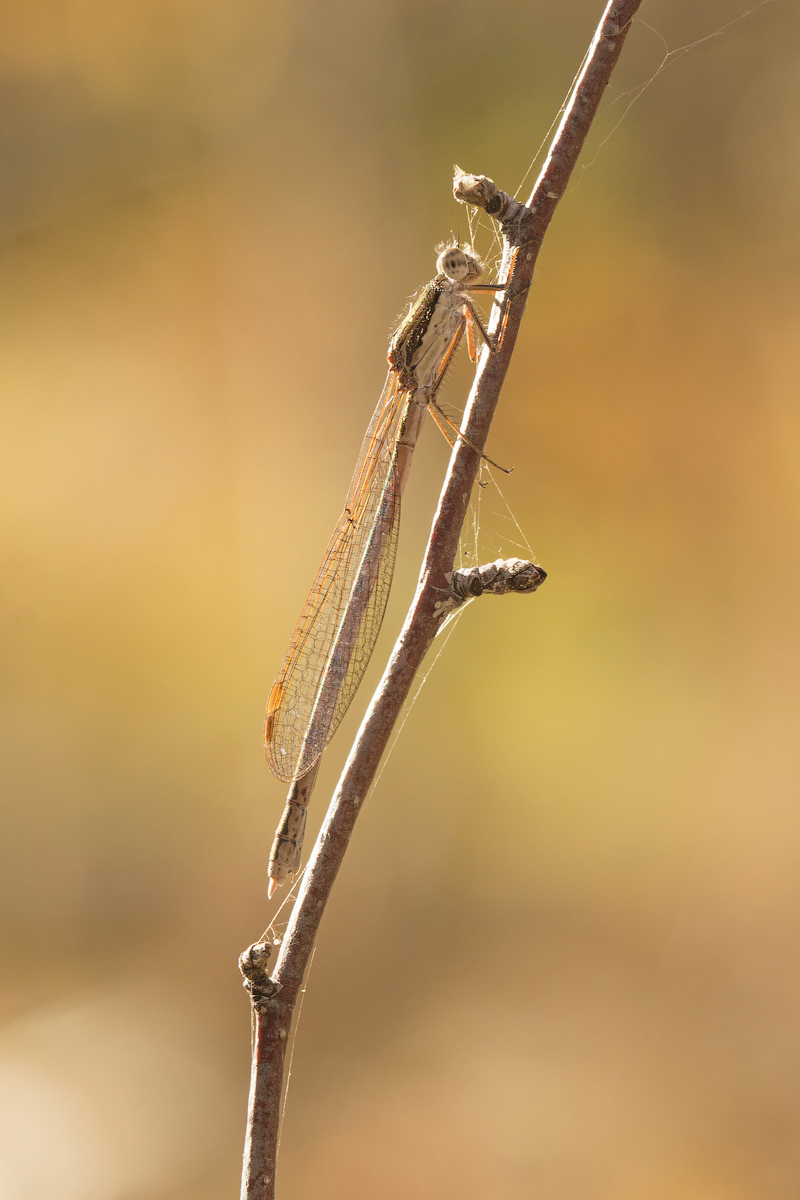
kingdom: Animalia
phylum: Arthropoda
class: Insecta
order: Odonata
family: Lestidae
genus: Sympecma
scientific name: Sympecma fusca
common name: Common winter damsel
